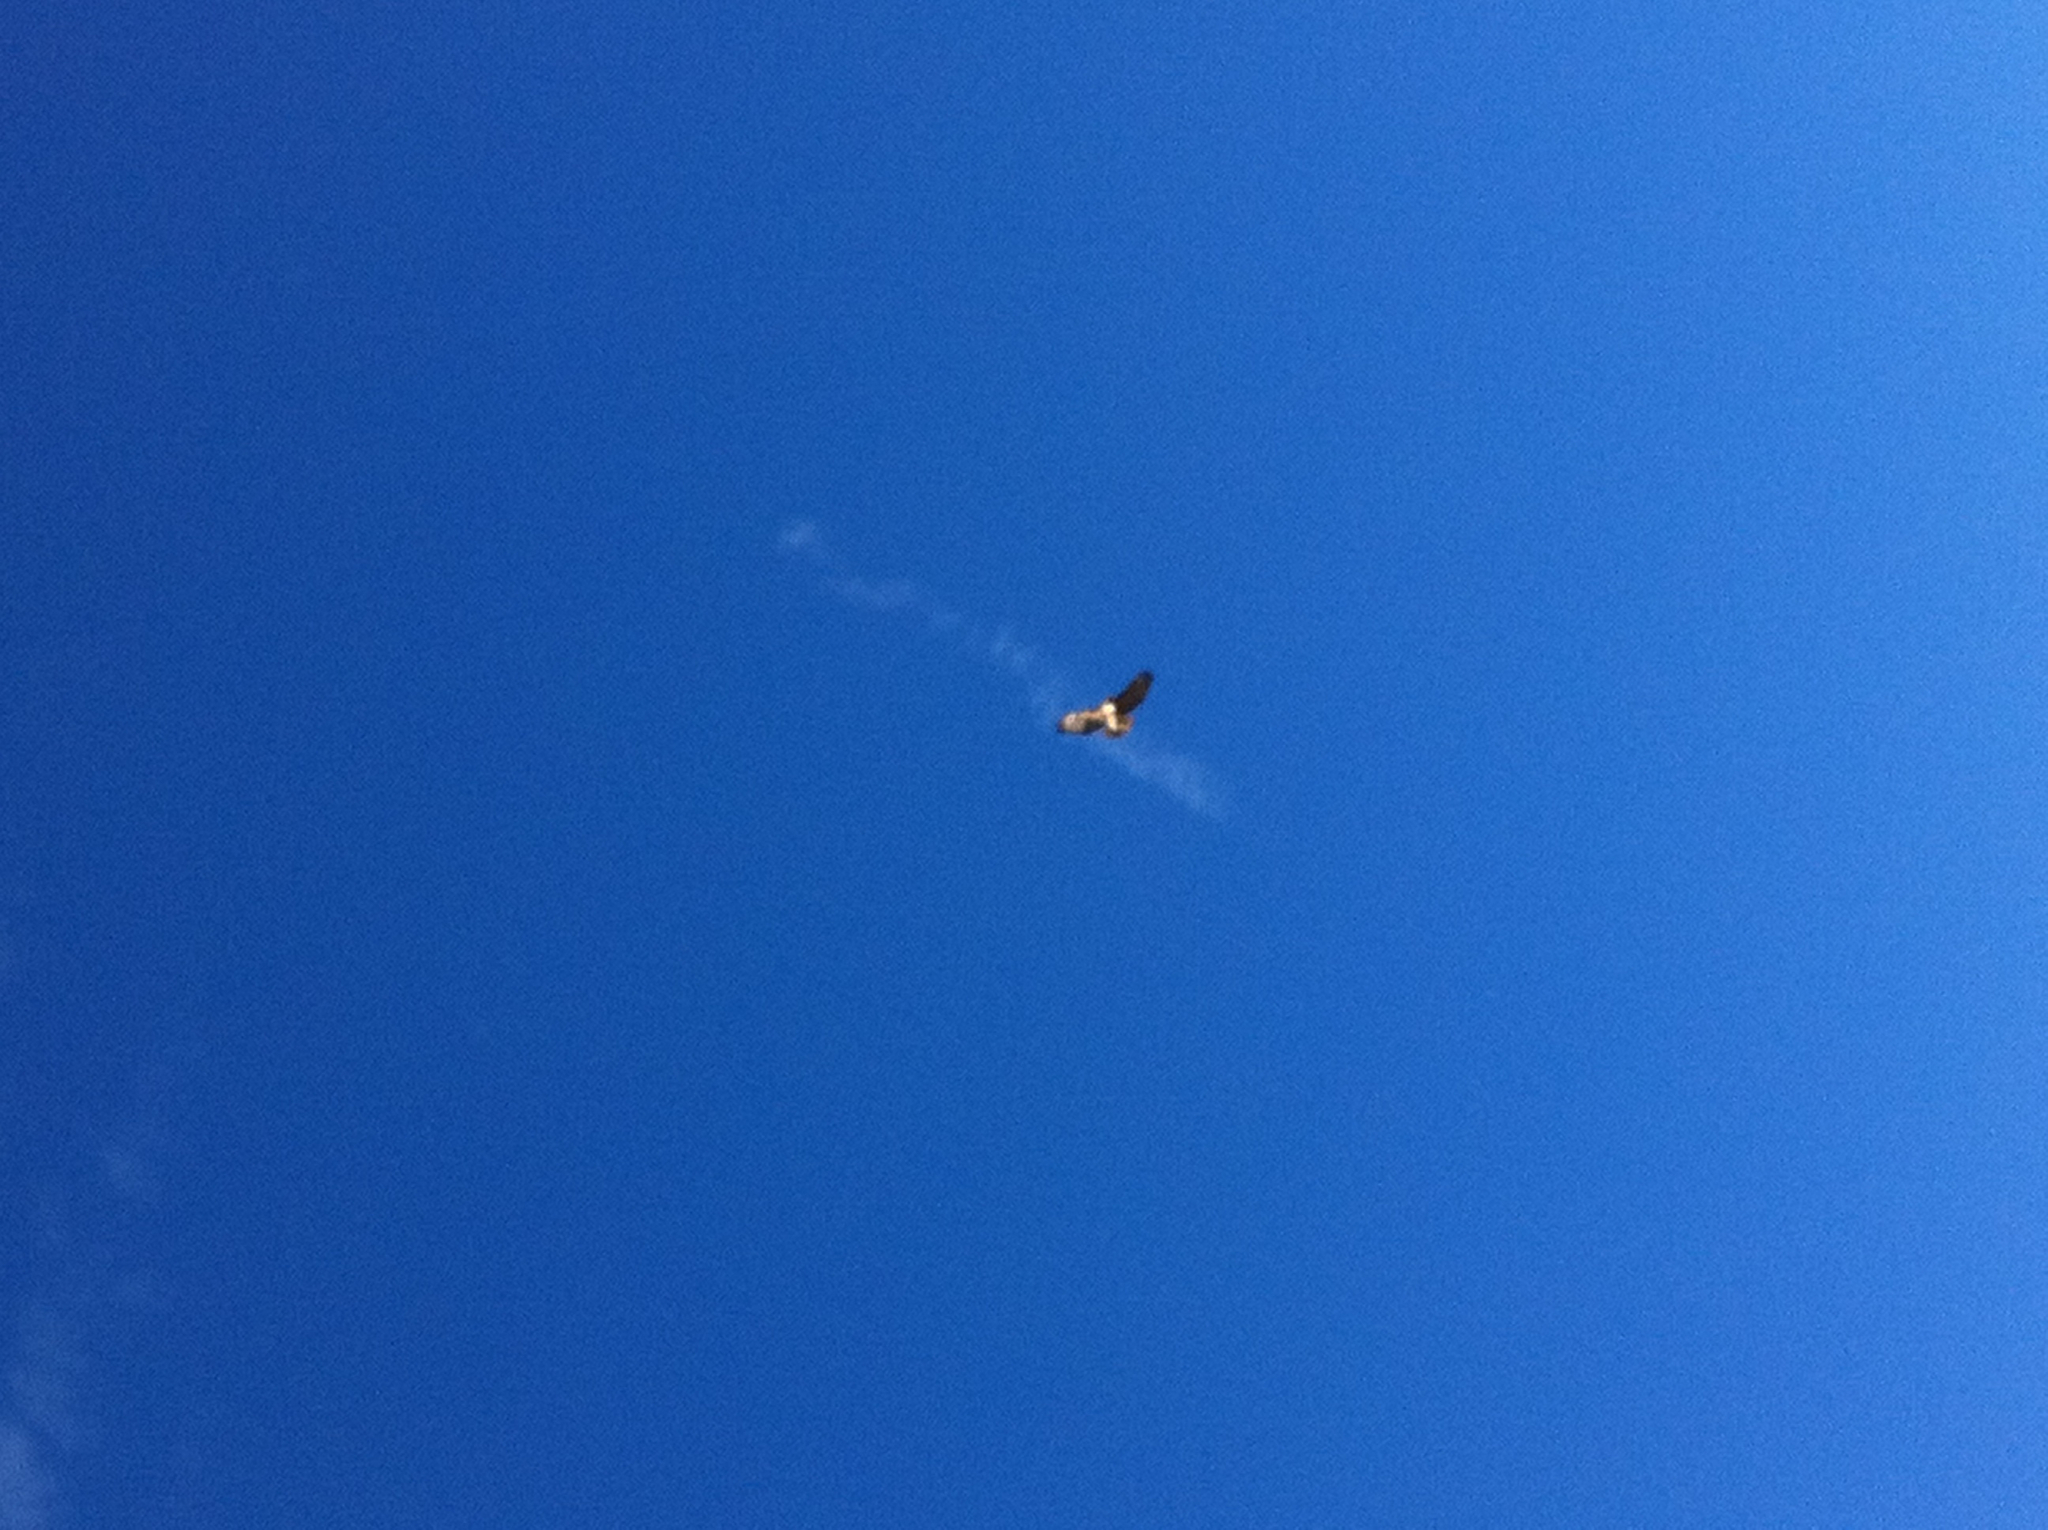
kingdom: Animalia
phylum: Chordata
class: Aves
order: Accipitriformes
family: Accipitridae
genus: Buteo
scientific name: Buteo jamaicensis
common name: Red-tailed hawk
